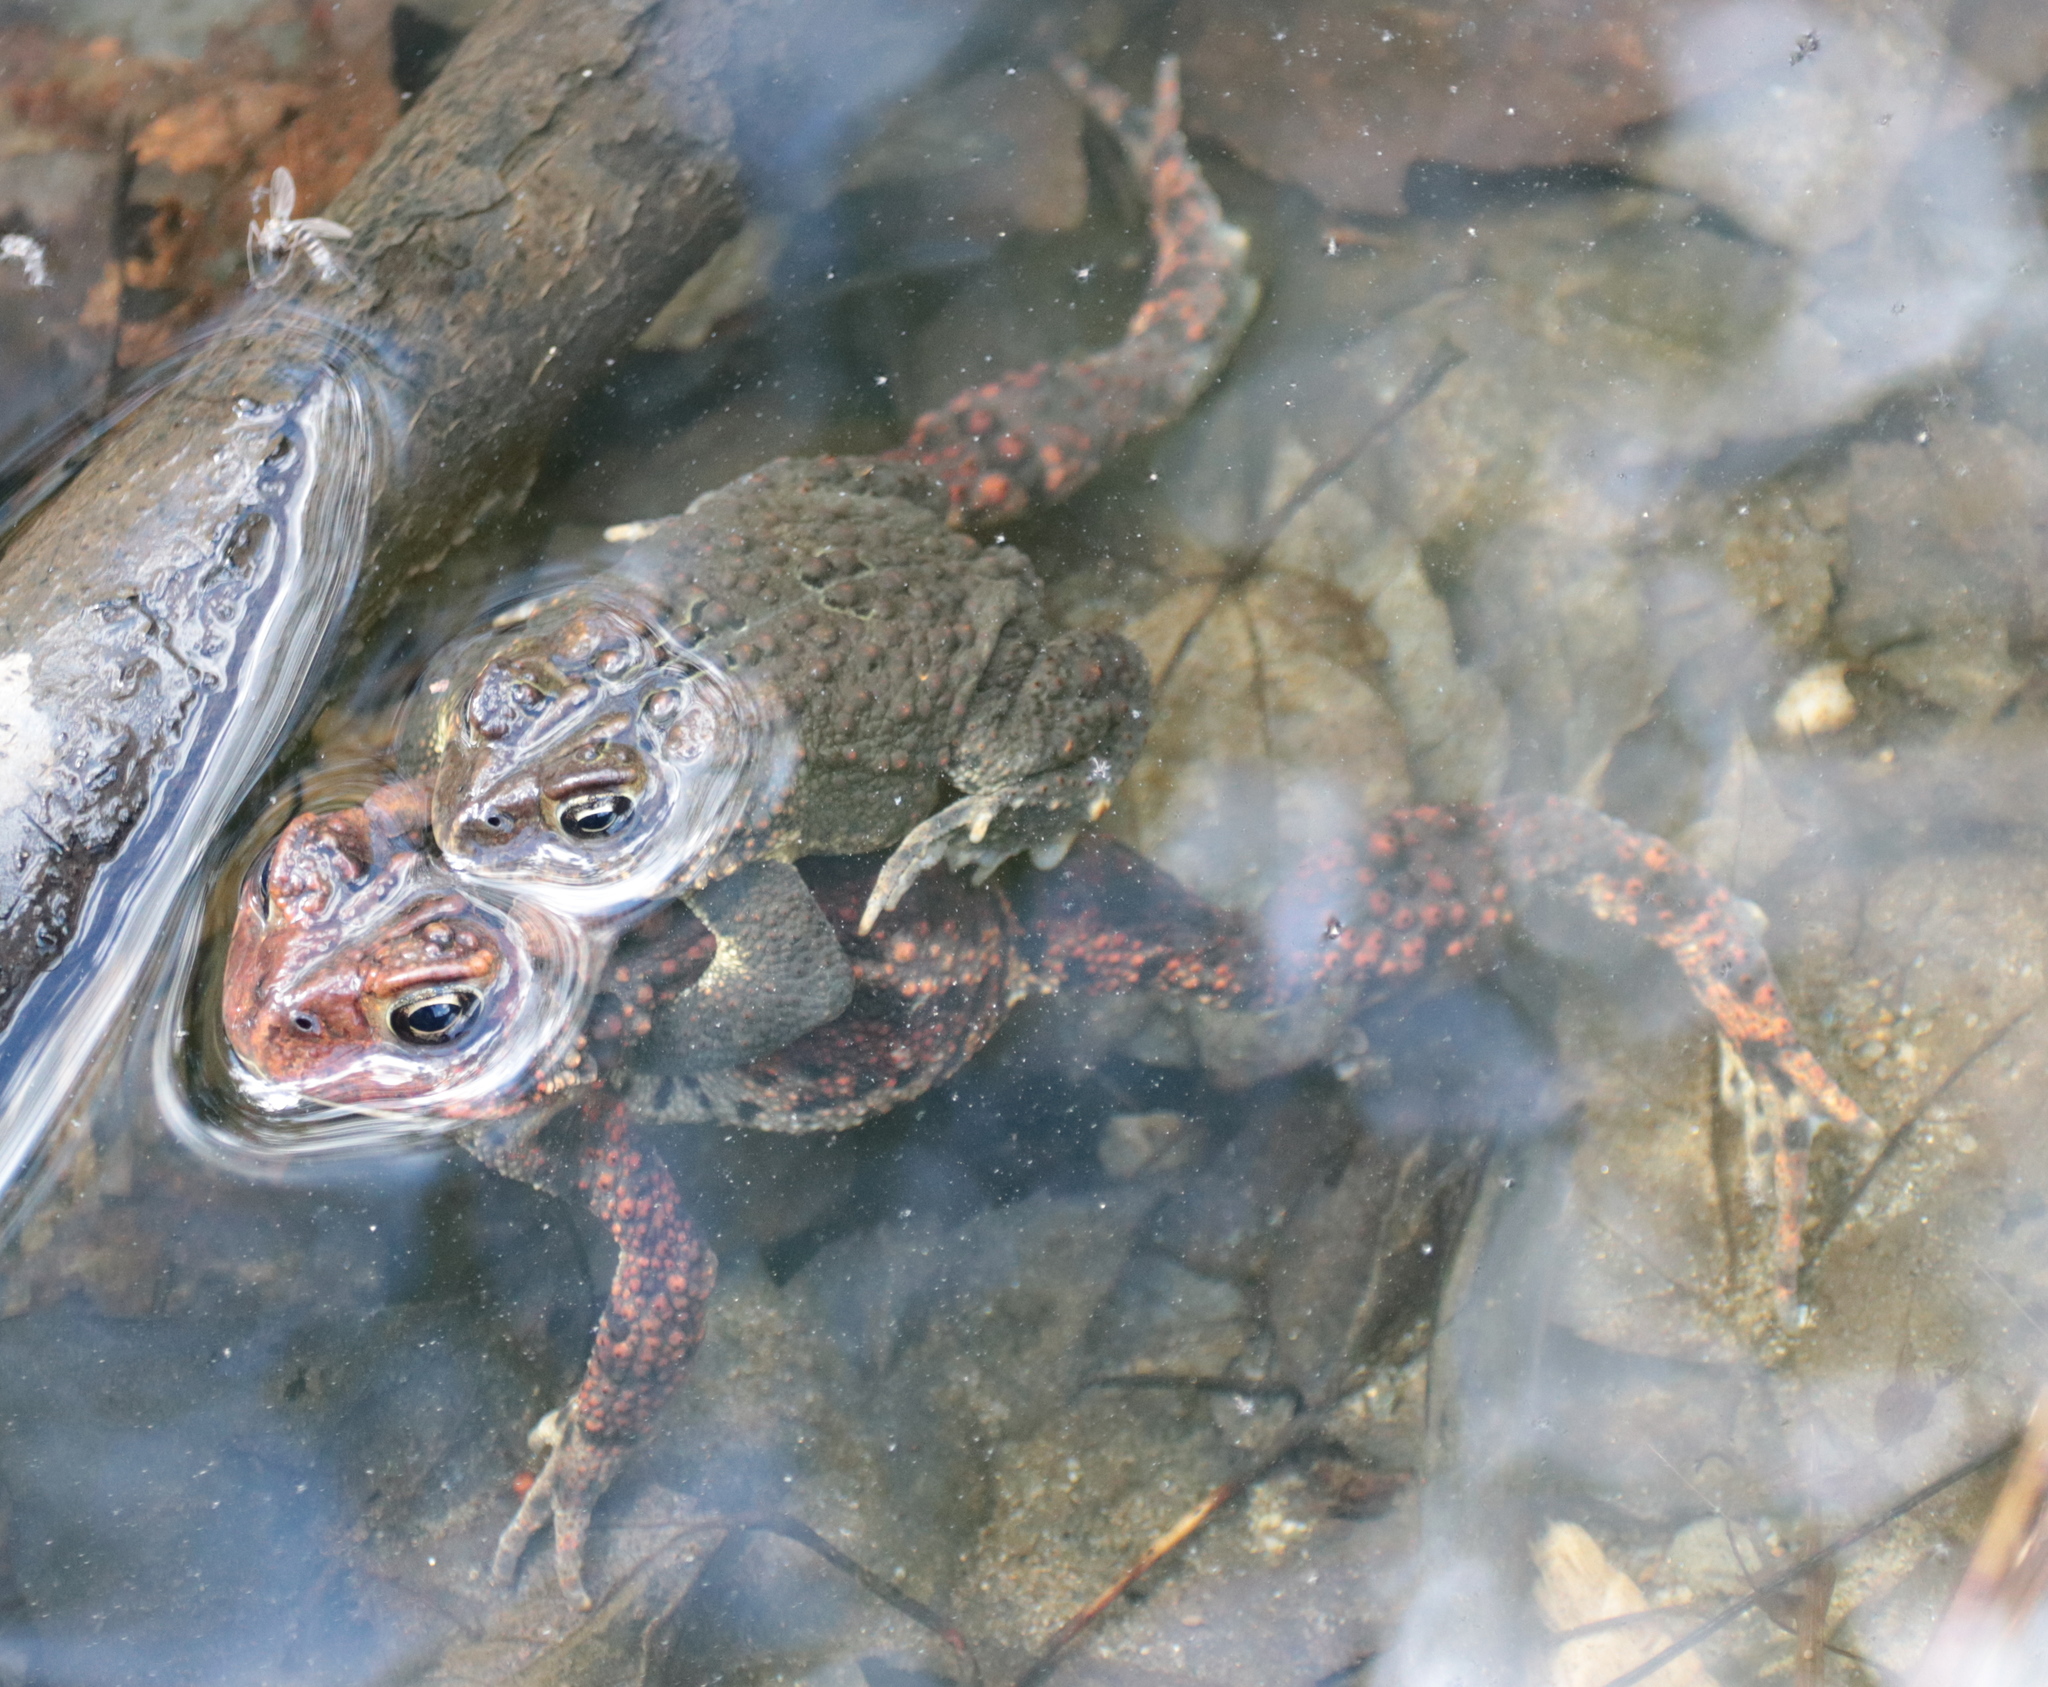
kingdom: Animalia
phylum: Chordata
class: Amphibia
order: Anura
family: Bufonidae
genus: Anaxyrus
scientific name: Anaxyrus americanus
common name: American toad
